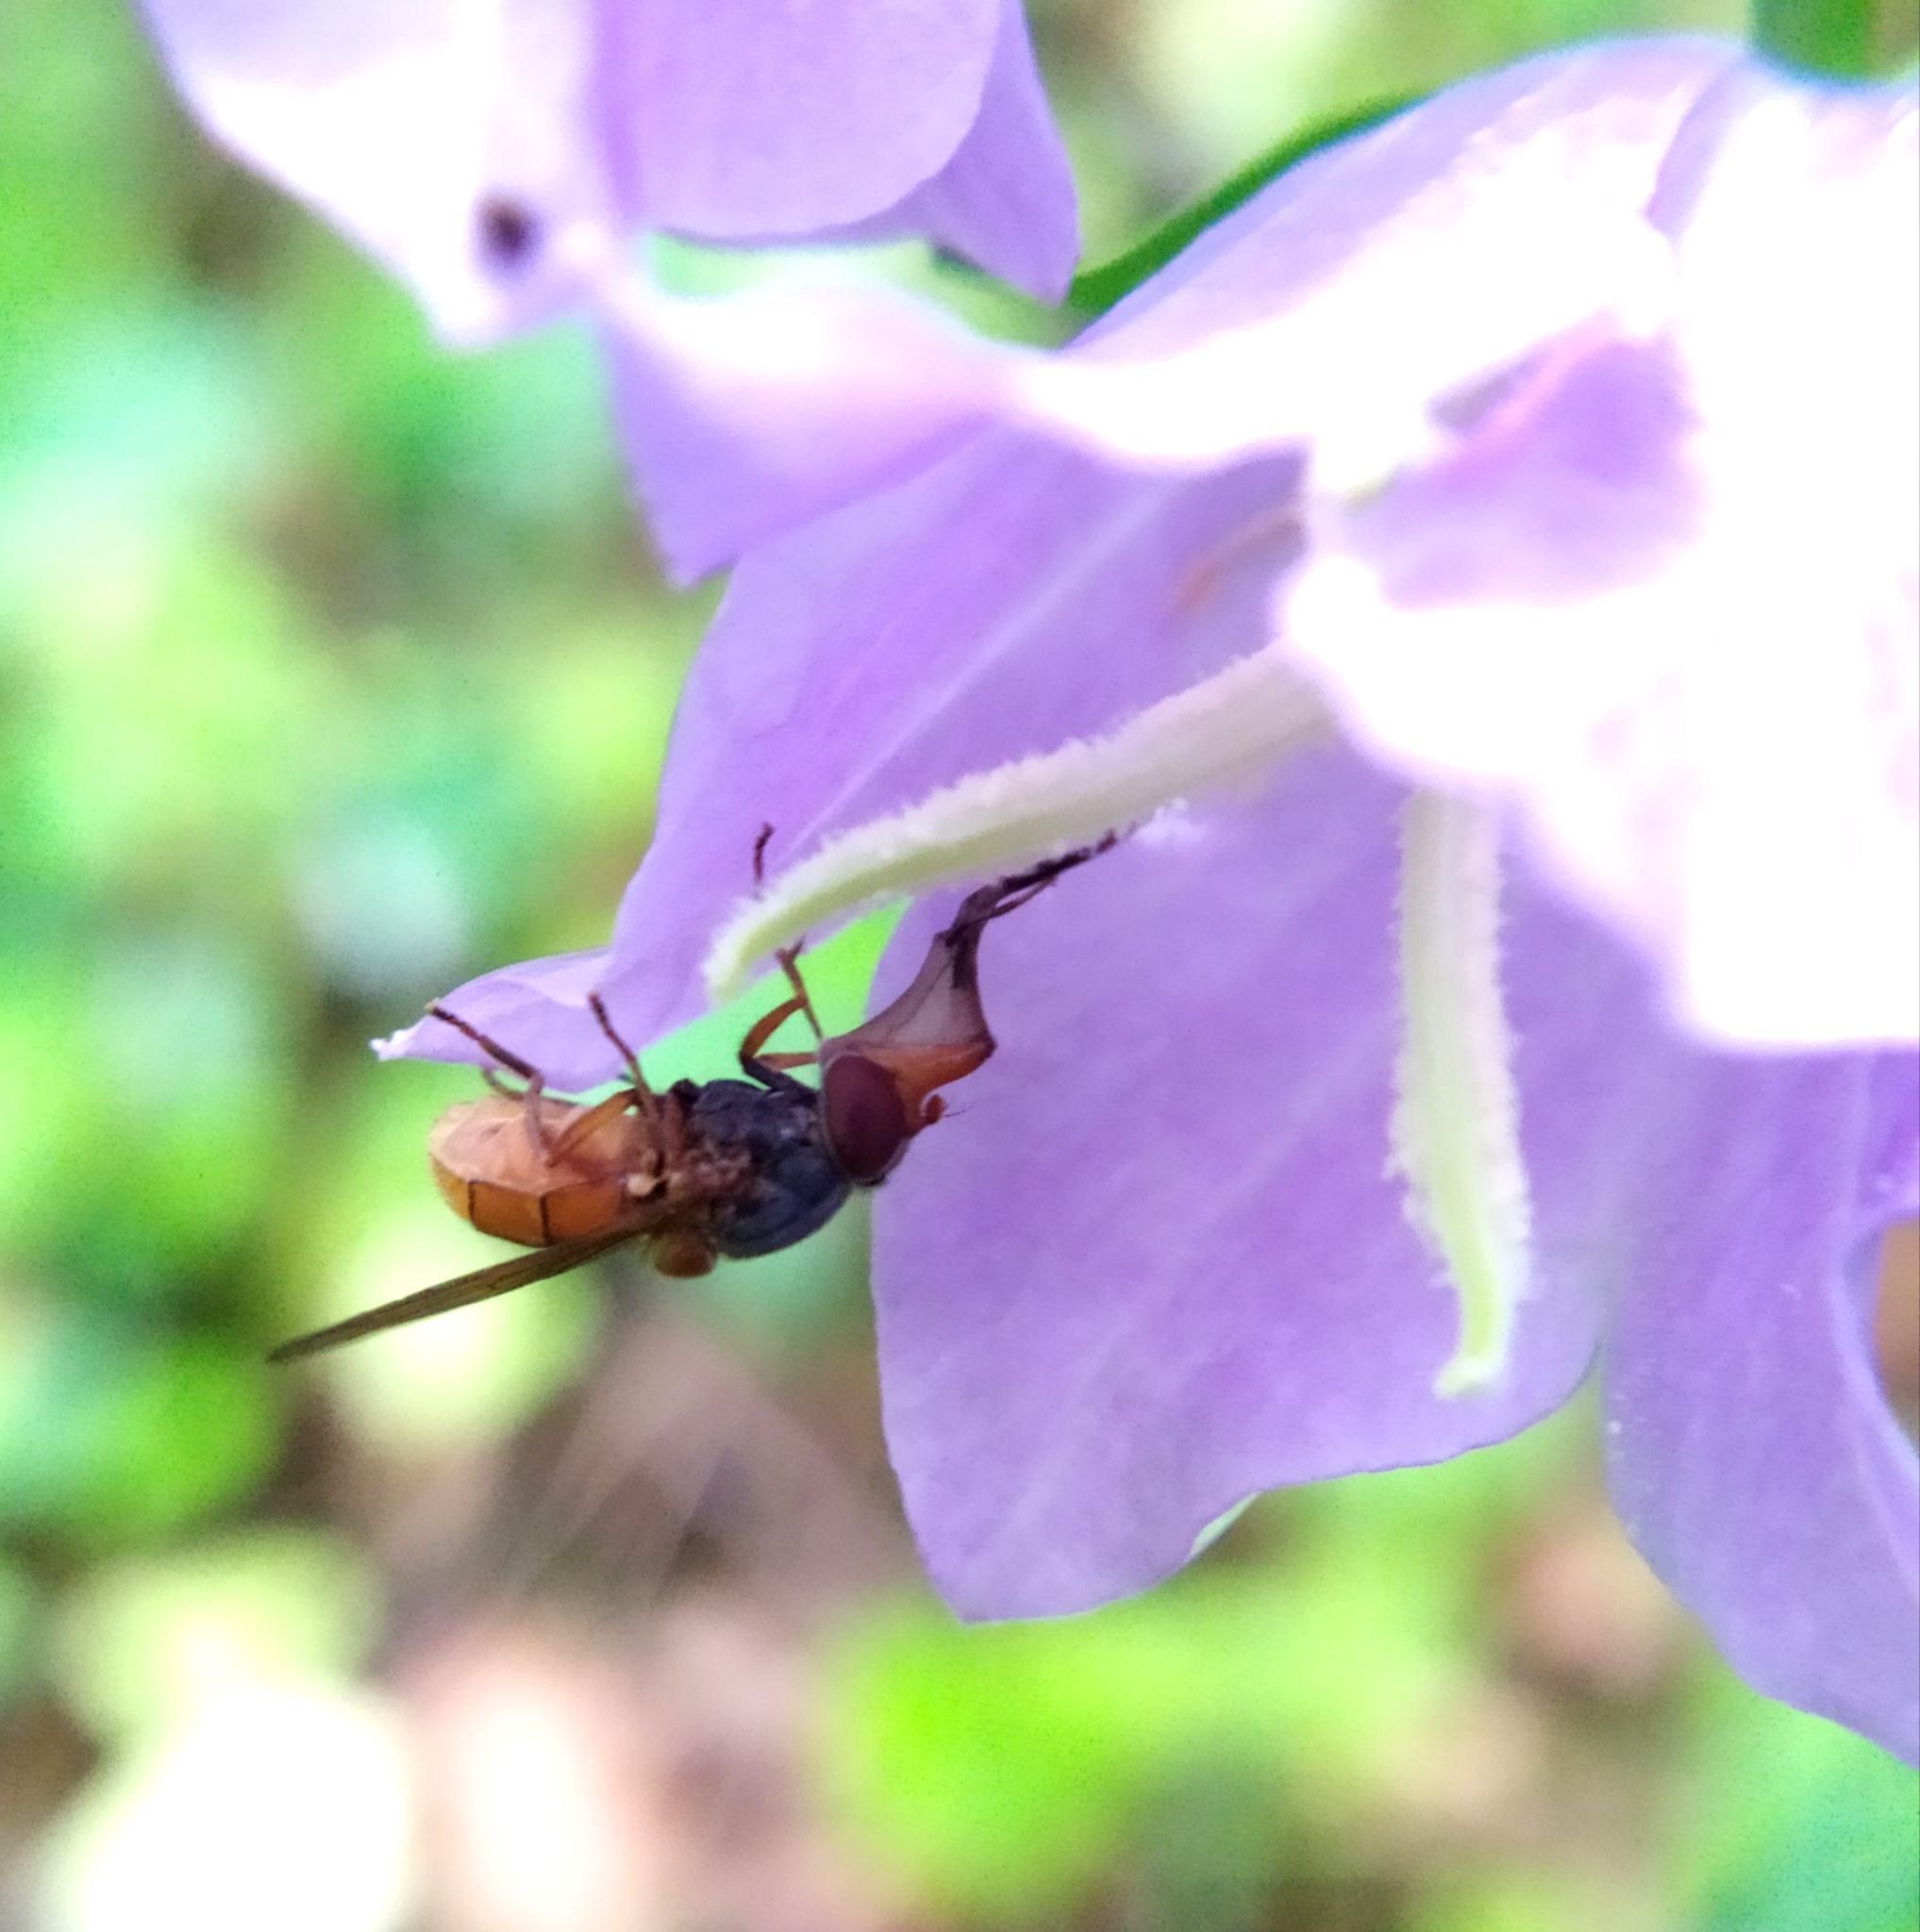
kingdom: Animalia
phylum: Arthropoda
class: Insecta
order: Diptera
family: Syrphidae
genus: Rhingia
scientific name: Rhingia campestris
